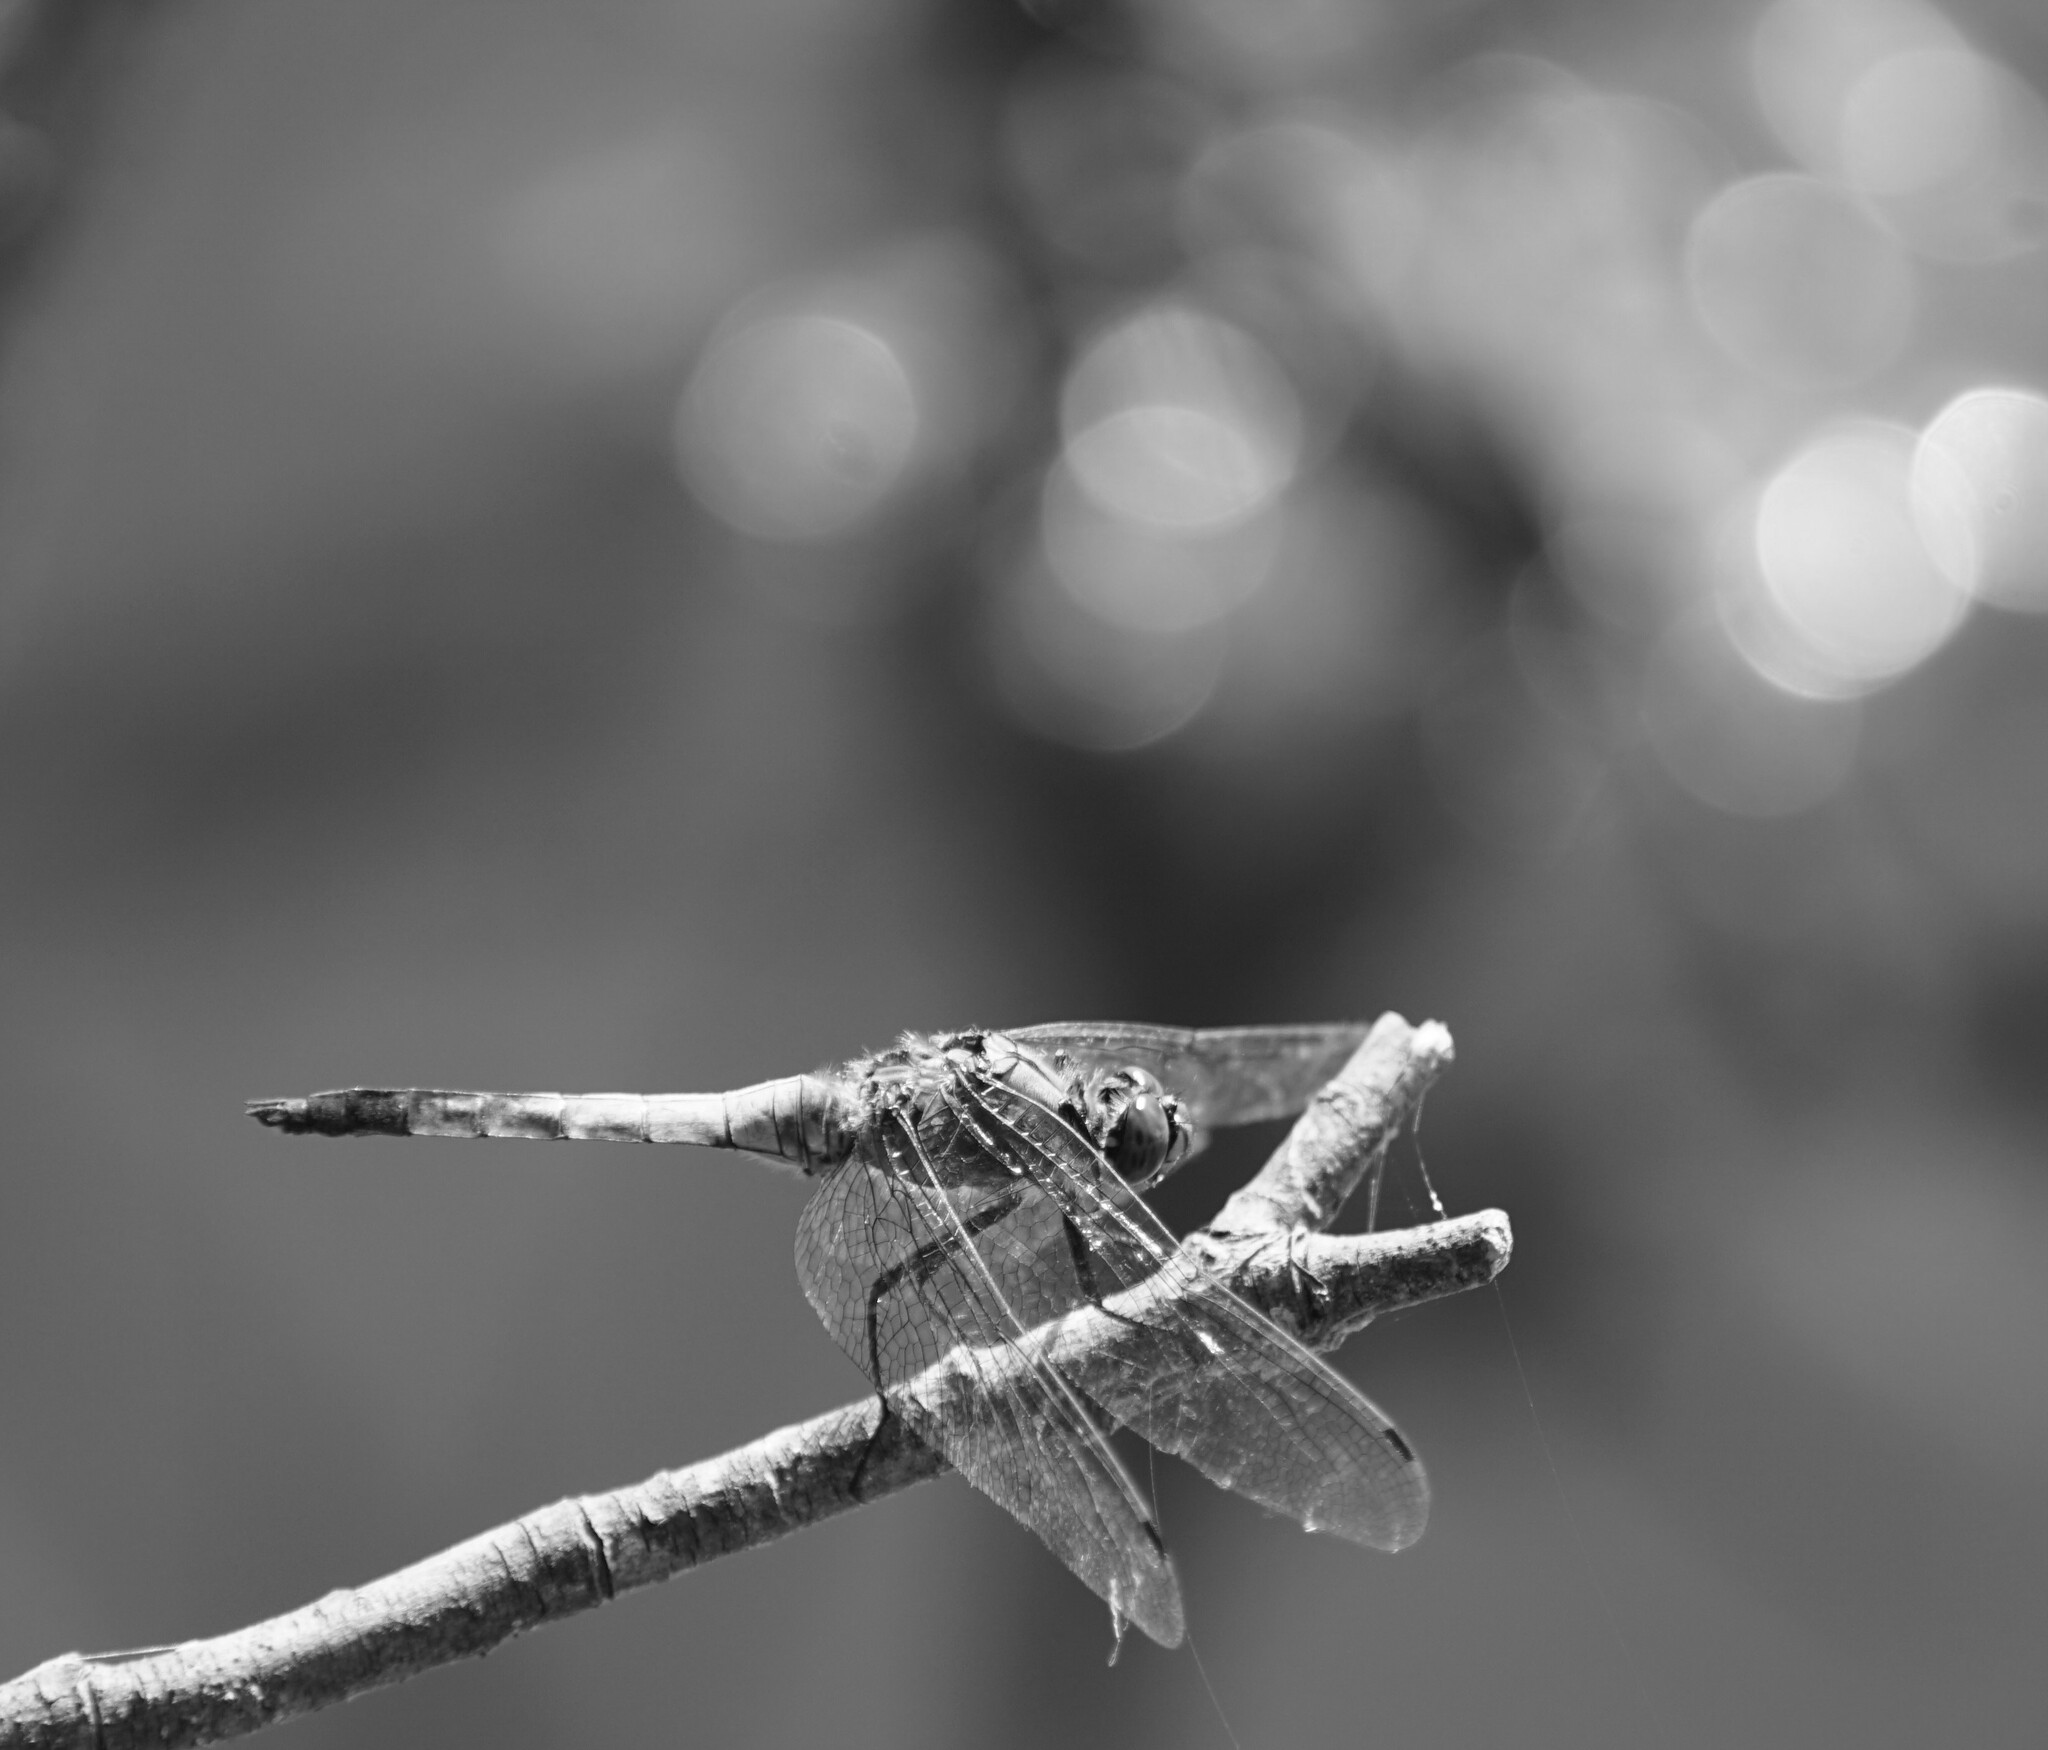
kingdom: Animalia
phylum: Arthropoda
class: Insecta
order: Odonata
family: Libellulidae
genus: Orthetrum
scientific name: Orthetrum cancellatum
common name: Black-tailed skimmer
